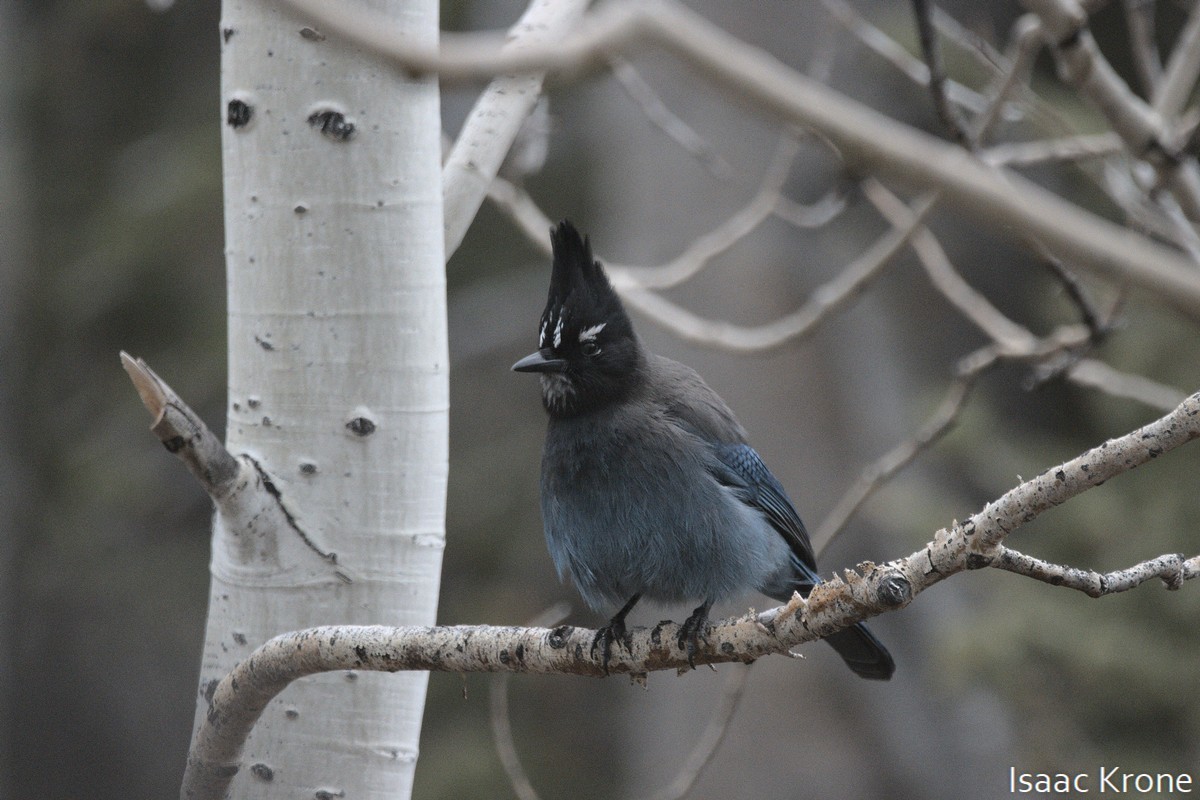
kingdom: Animalia
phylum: Chordata
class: Aves
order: Passeriformes
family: Corvidae
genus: Cyanocitta
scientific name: Cyanocitta stelleri
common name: Steller's jay
